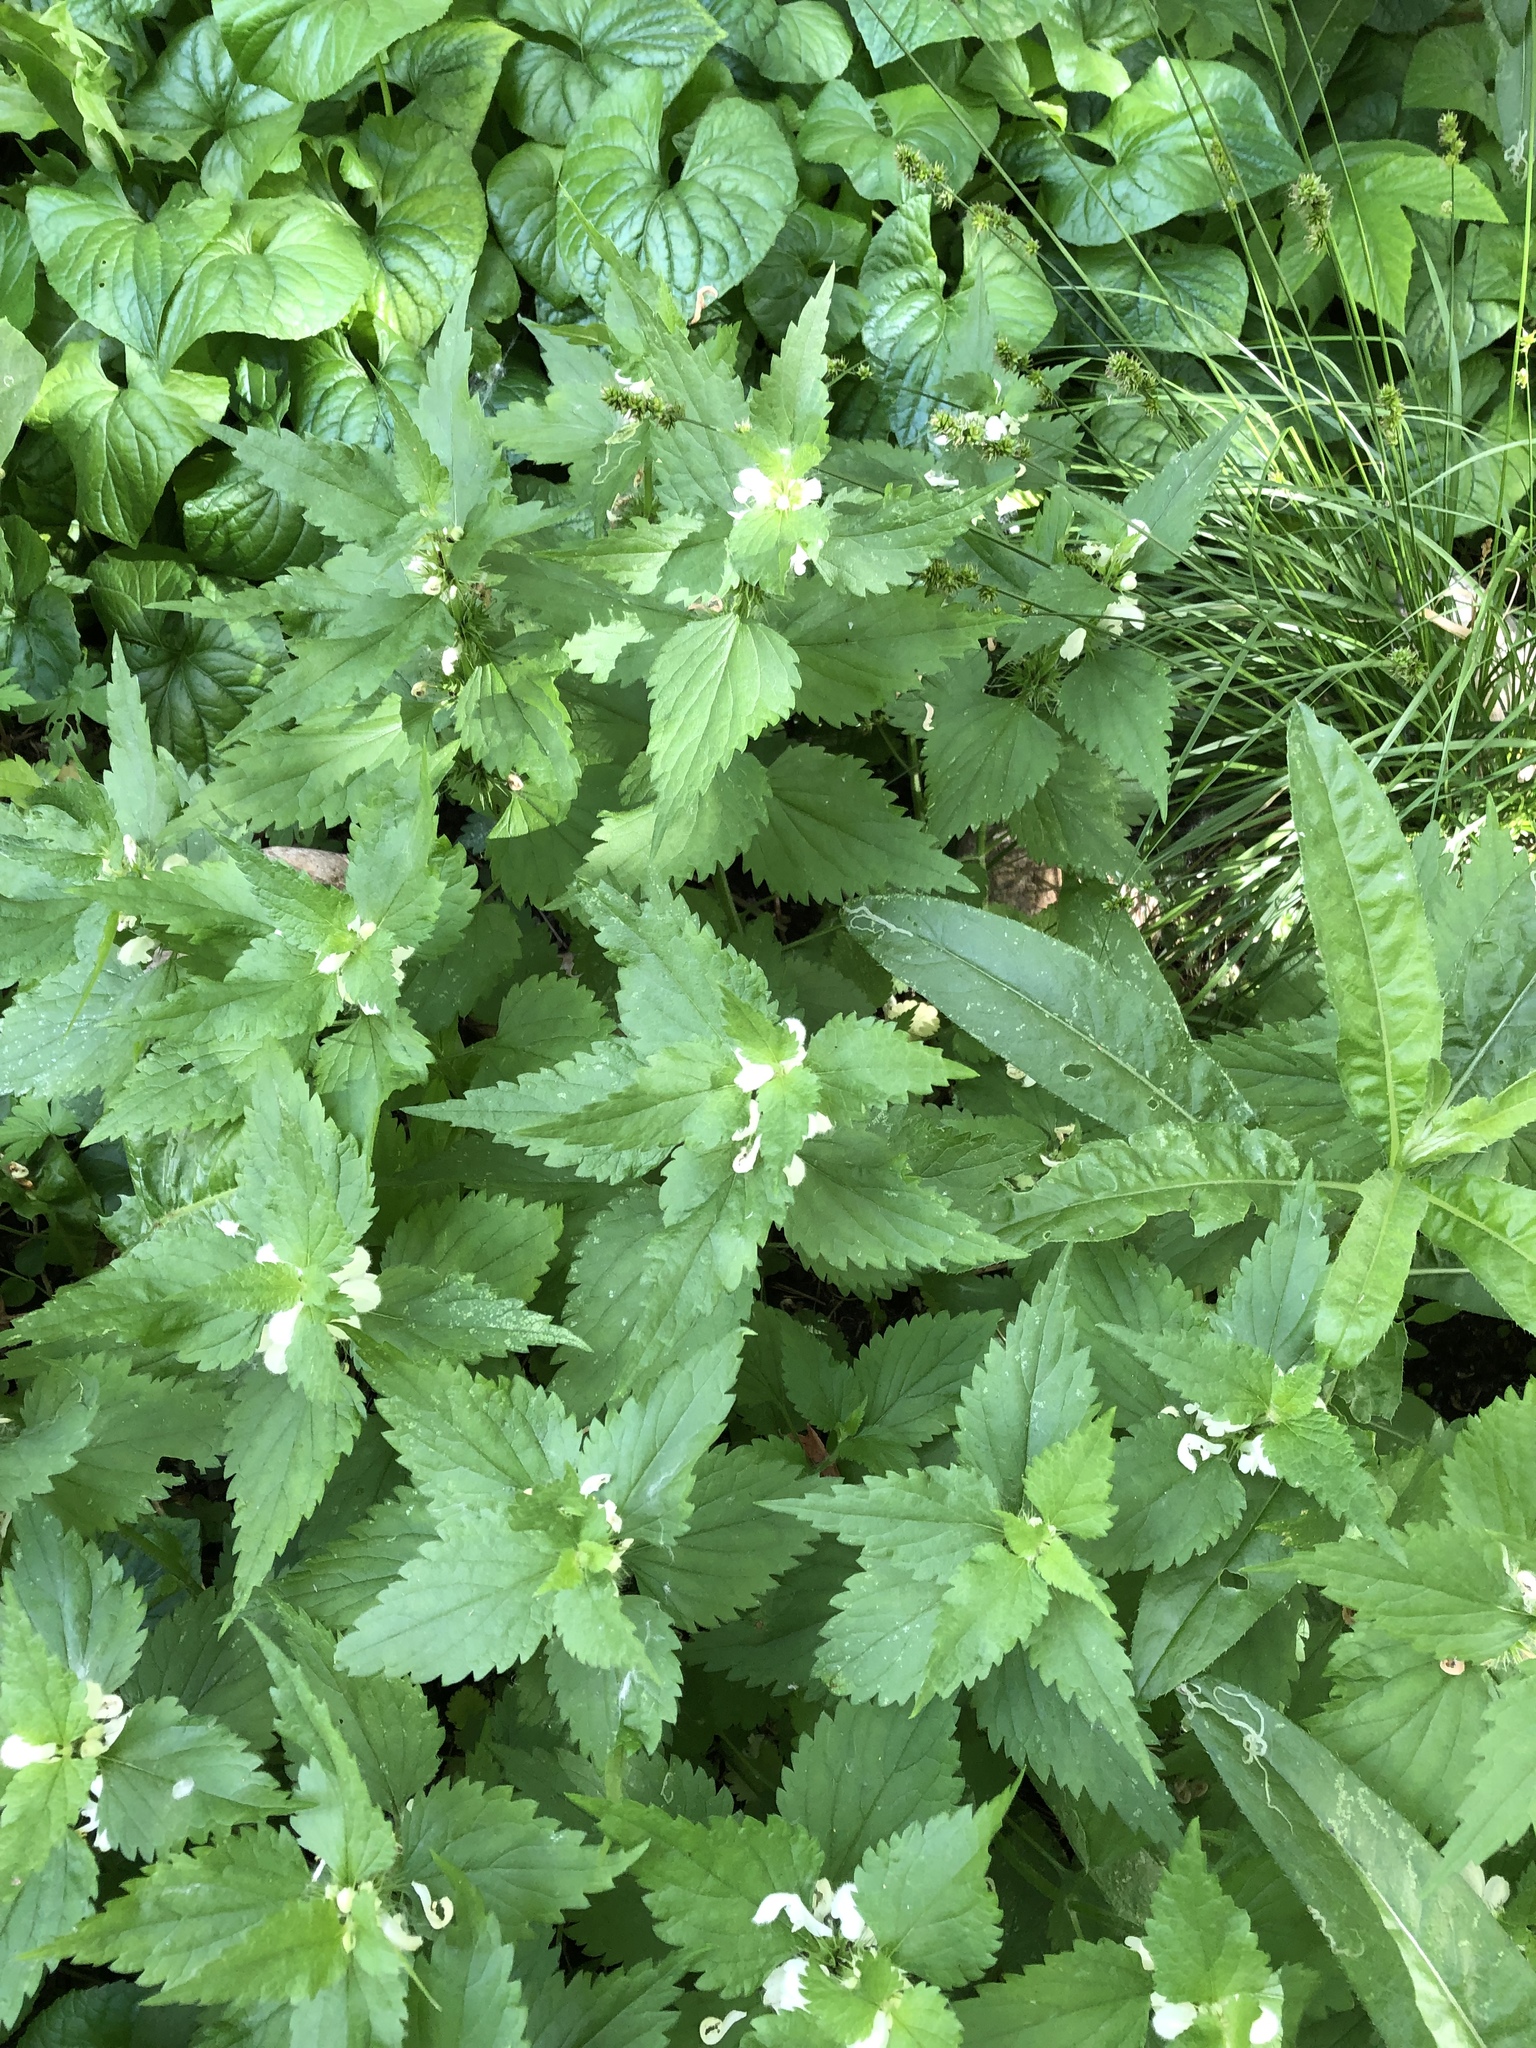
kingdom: Plantae
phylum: Tracheophyta
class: Magnoliopsida
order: Lamiales
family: Lamiaceae
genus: Lamium
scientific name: Lamium album
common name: White dead-nettle
